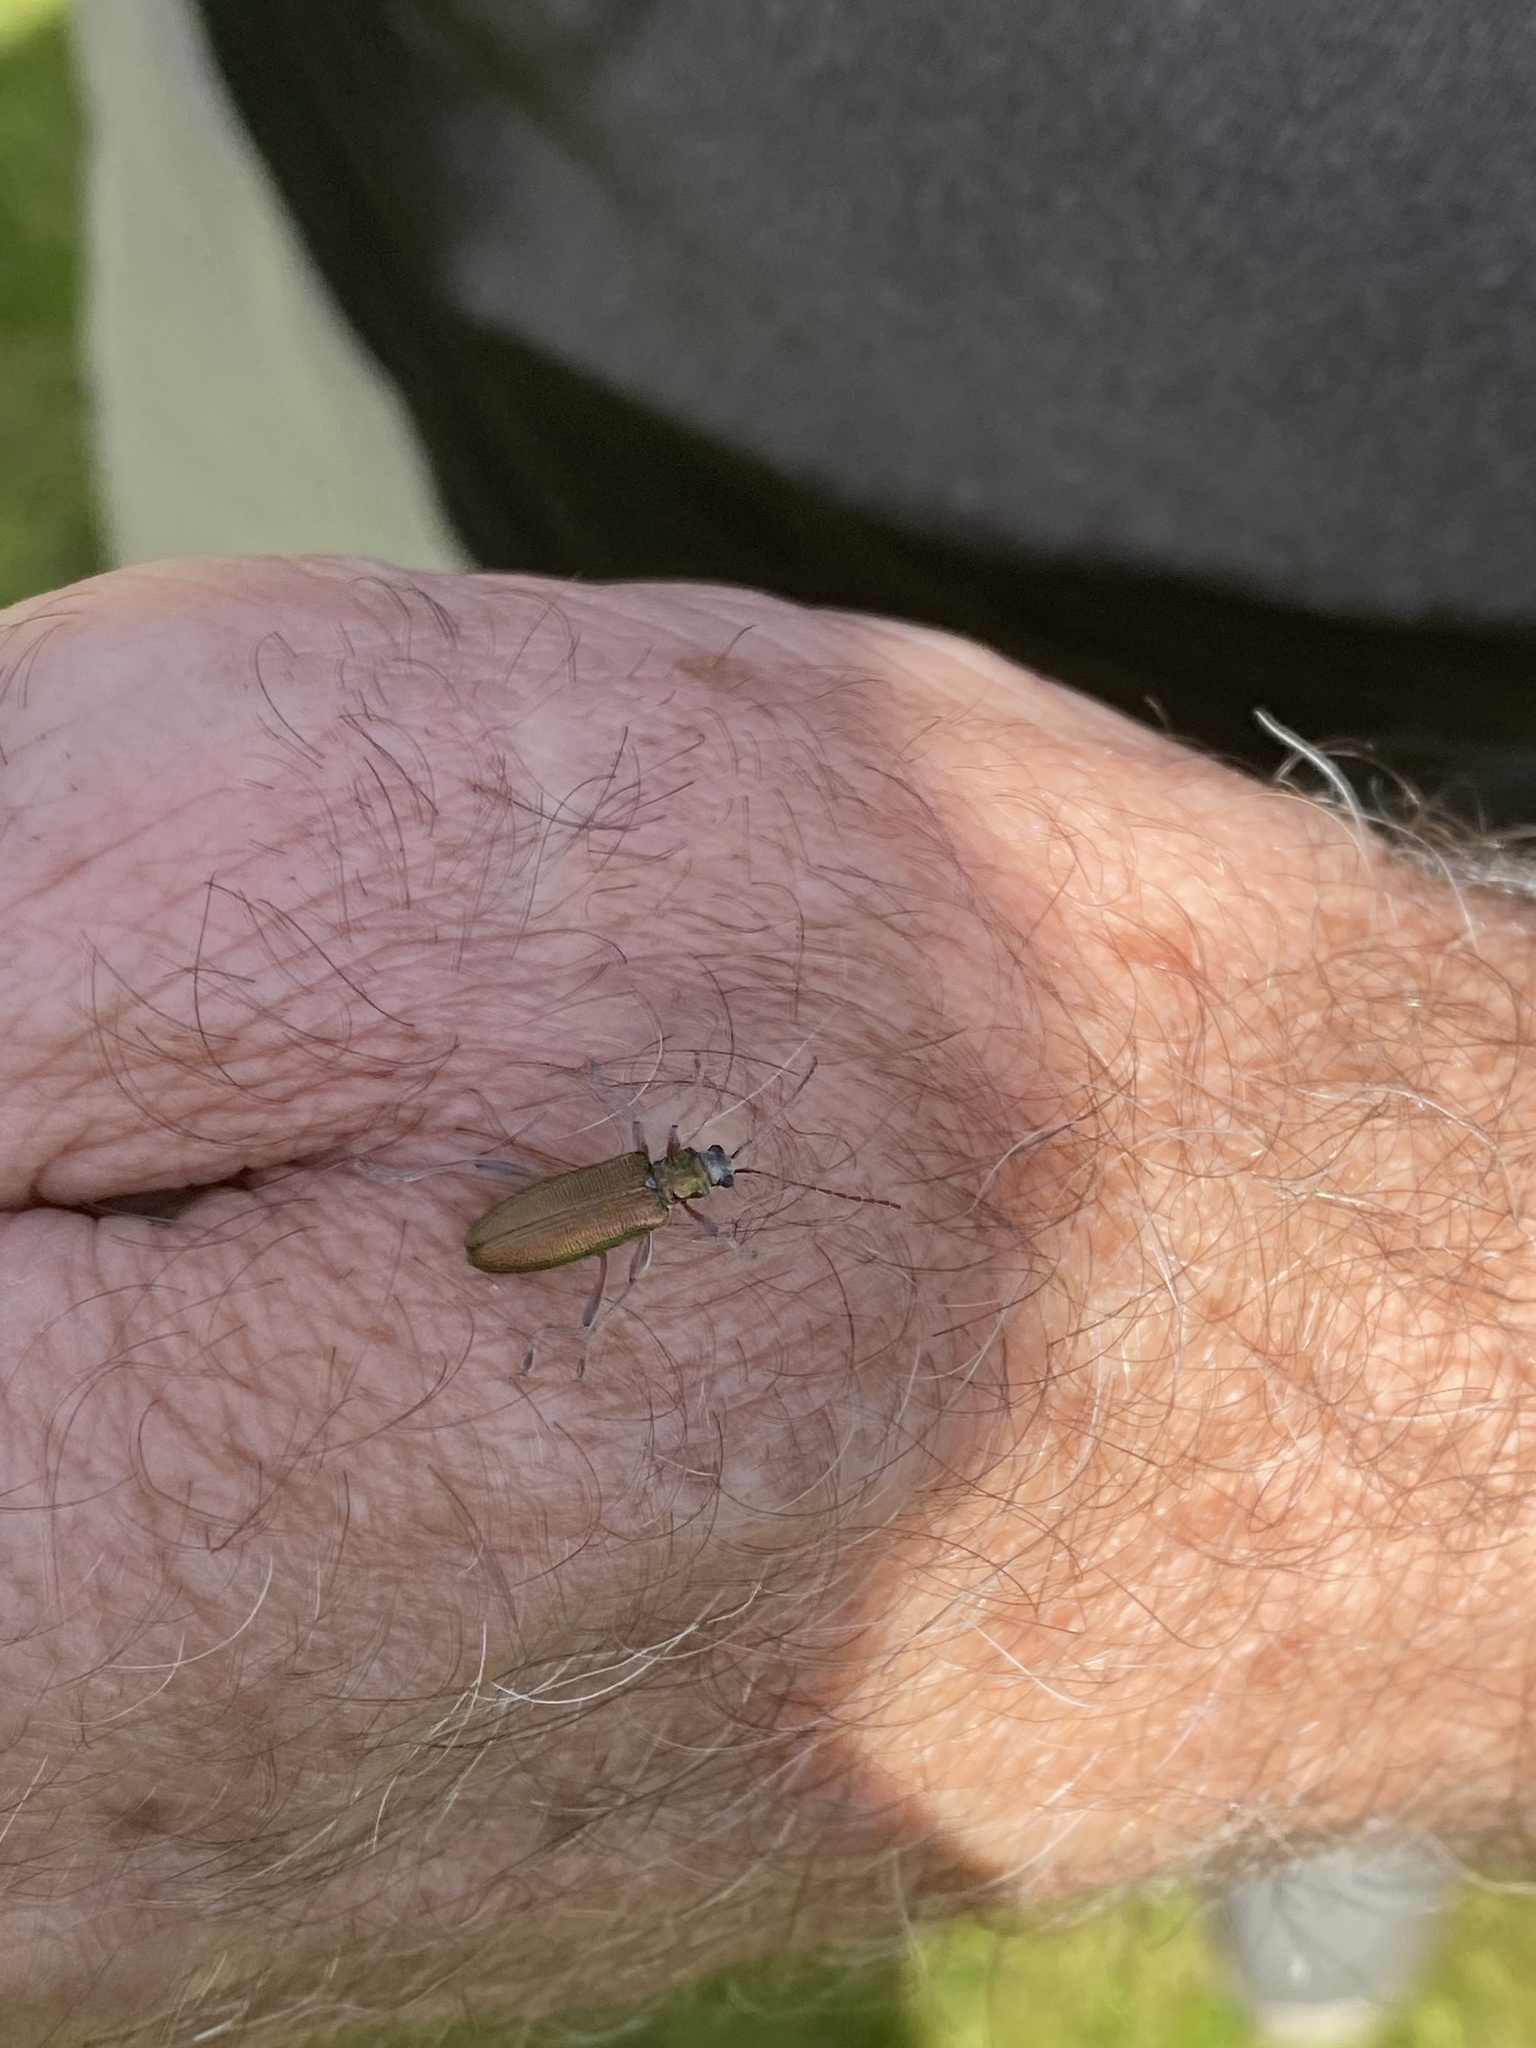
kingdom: Animalia
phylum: Arthropoda
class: Insecta
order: Coleoptera
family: Chrysomelidae
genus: Donacia
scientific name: Donacia clavipes
